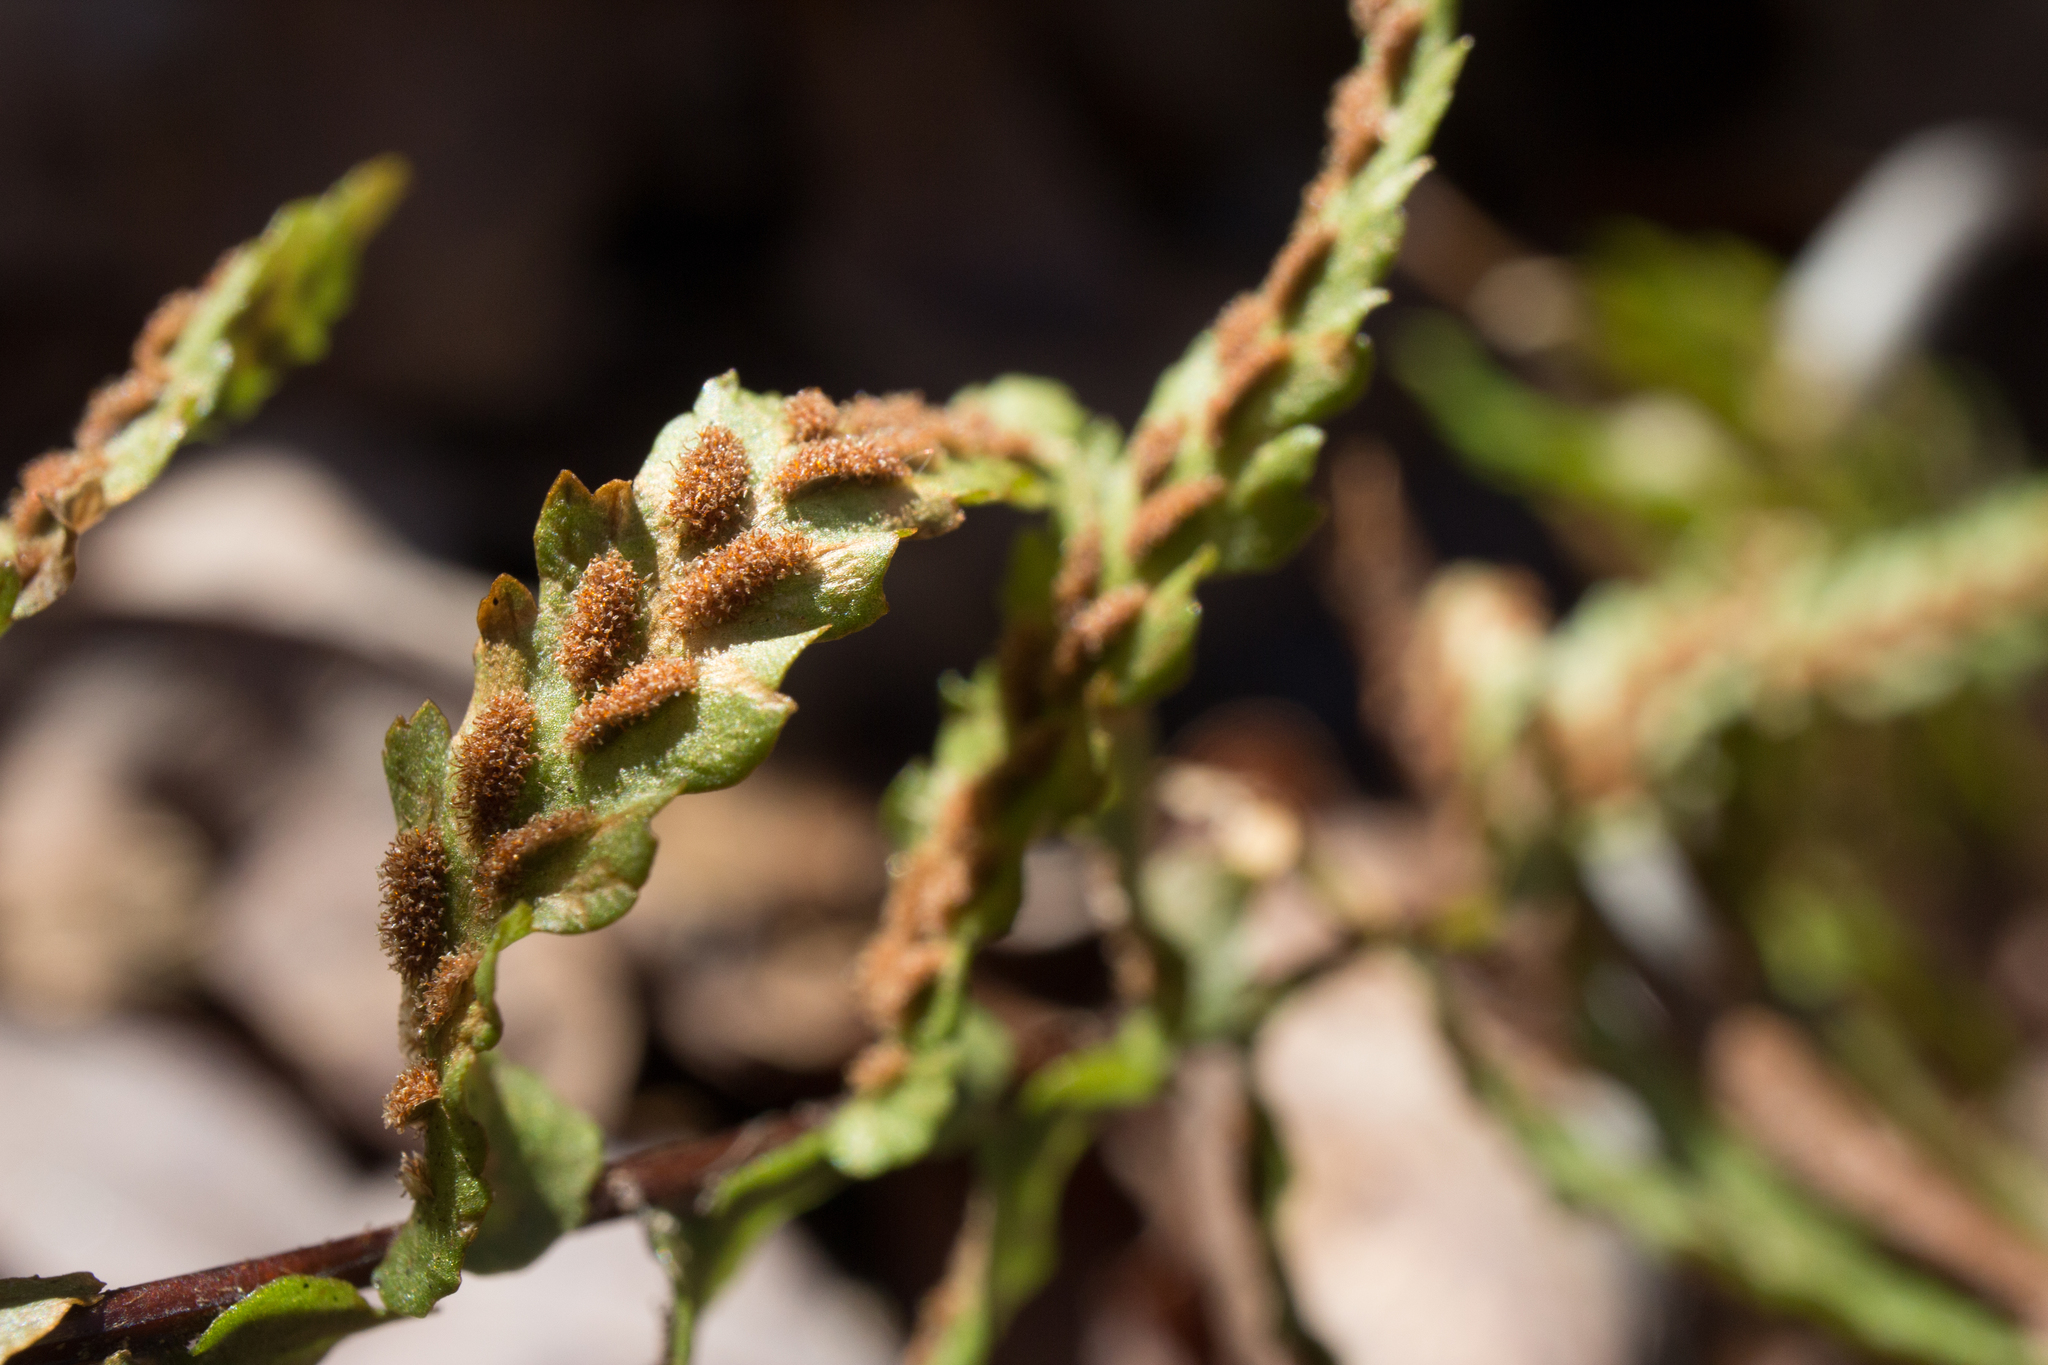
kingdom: Plantae
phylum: Tracheophyta
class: Polypodiopsida
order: Polypodiales
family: Aspleniaceae
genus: Asplenium
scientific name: Asplenium platyneuron
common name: Ebony spleenwort
